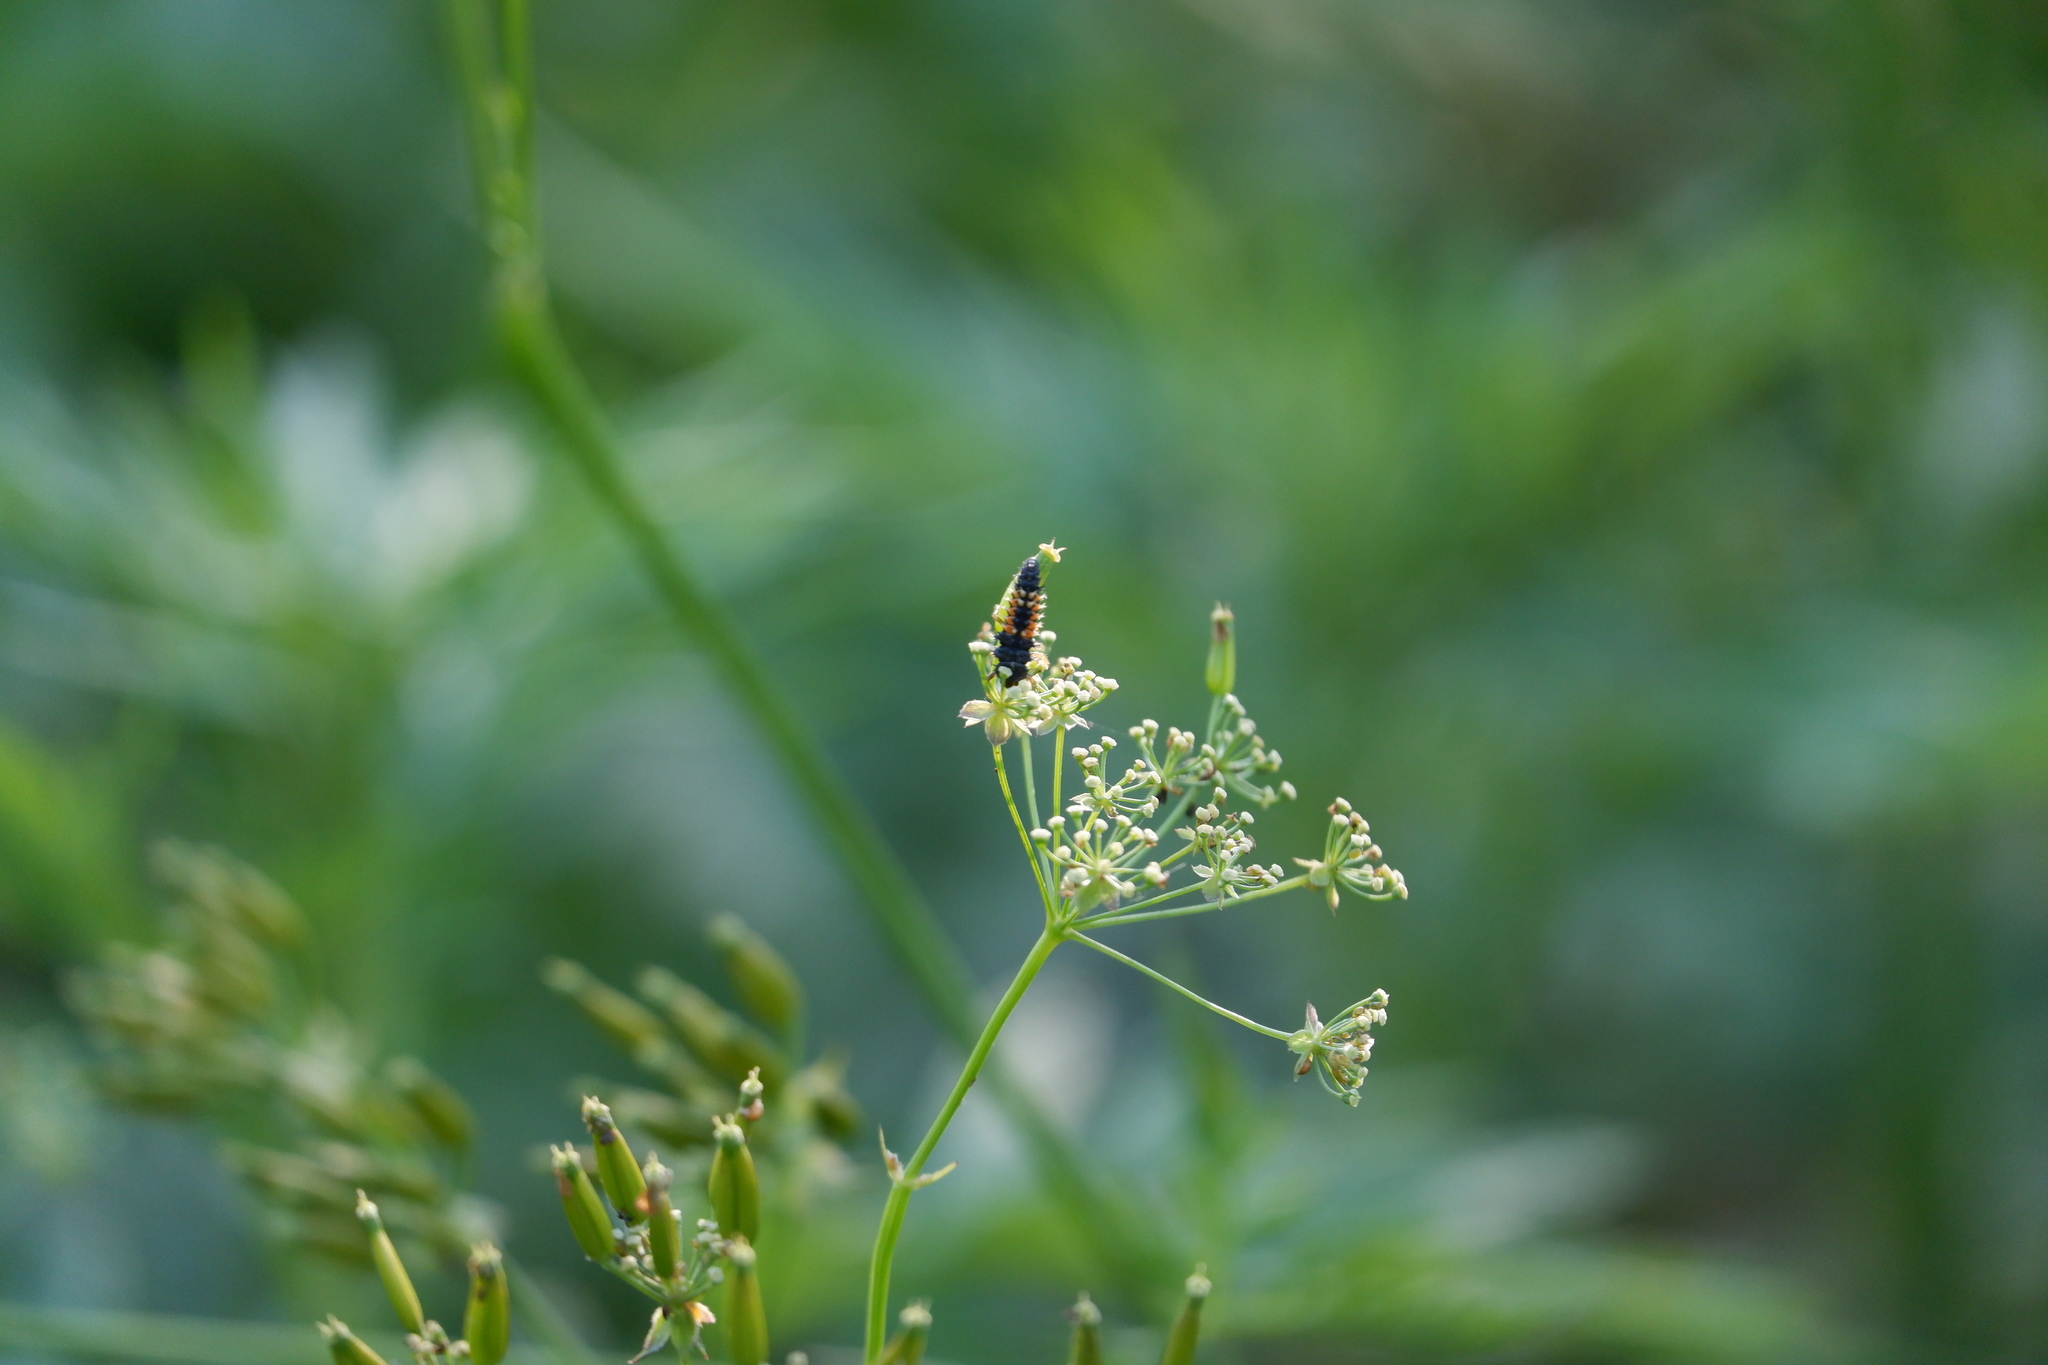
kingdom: Animalia
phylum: Arthropoda
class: Insecta
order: Coleoptera
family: Coccinellidae
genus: Harmonia
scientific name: Harmonia axyridis
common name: Harlequin ladybird
